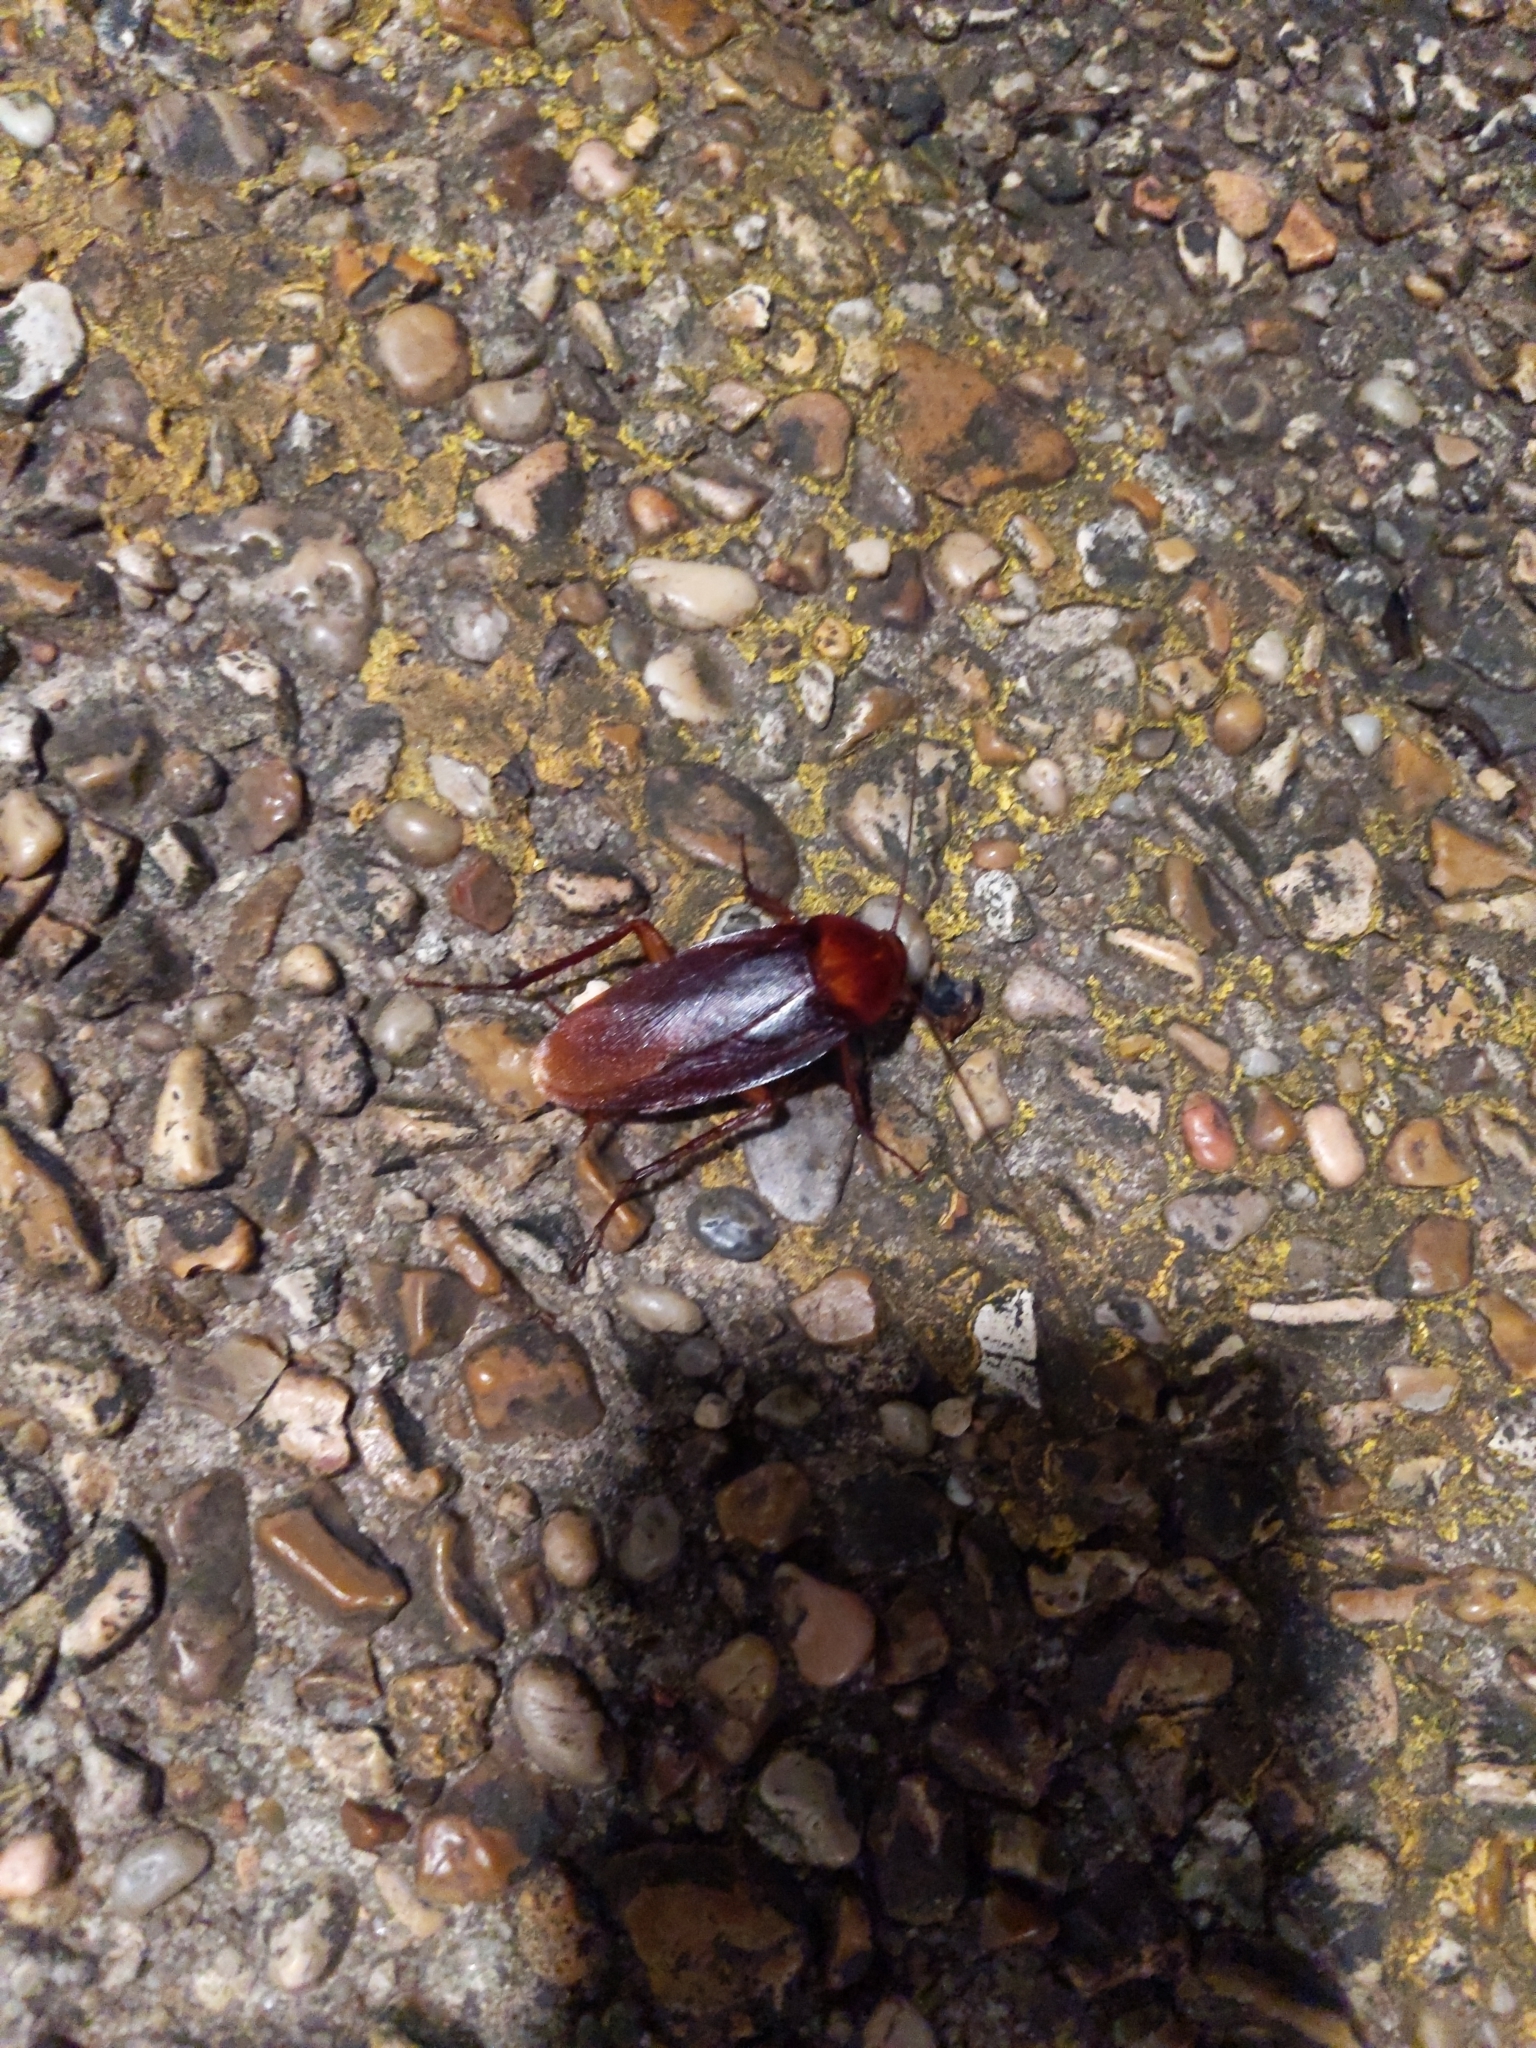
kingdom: Animalia
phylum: Arthropoda
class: Insecta
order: Blattodea
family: Blattidae
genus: Periplaneta
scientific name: Periplaneta brunnea
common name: Brown cockroach
